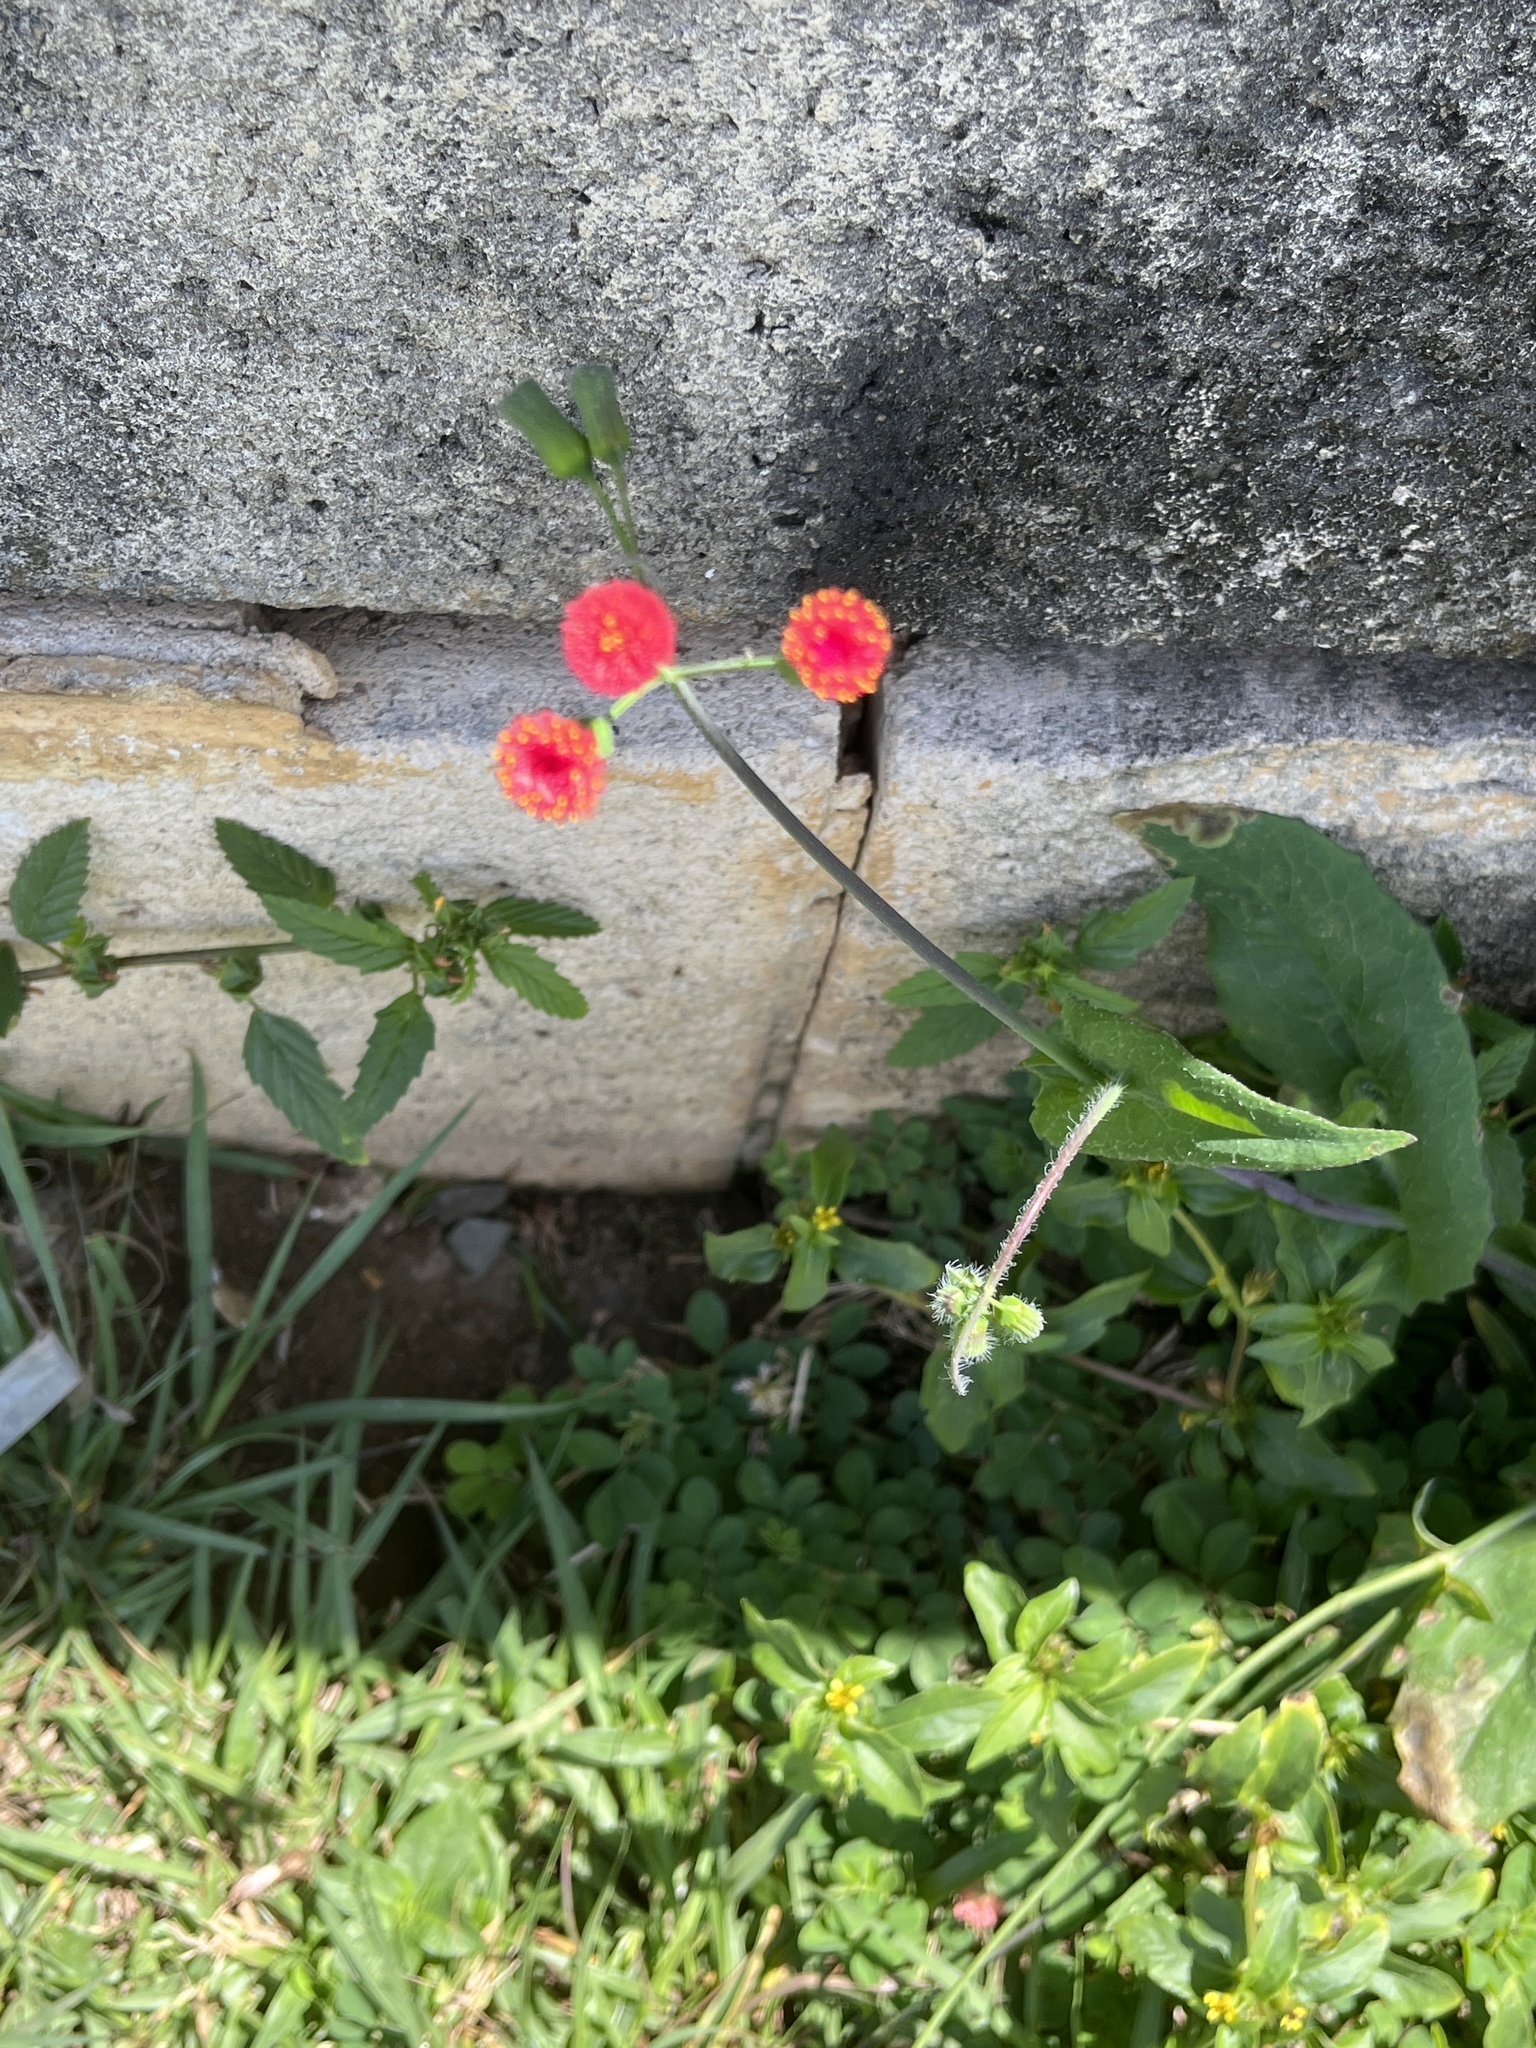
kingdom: Plantae
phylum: Tracheophyta
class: Magnoliopsida
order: Asterales
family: Asteraceae
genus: Emilia
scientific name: Emilia fosbergii
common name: Florida tasselflower
